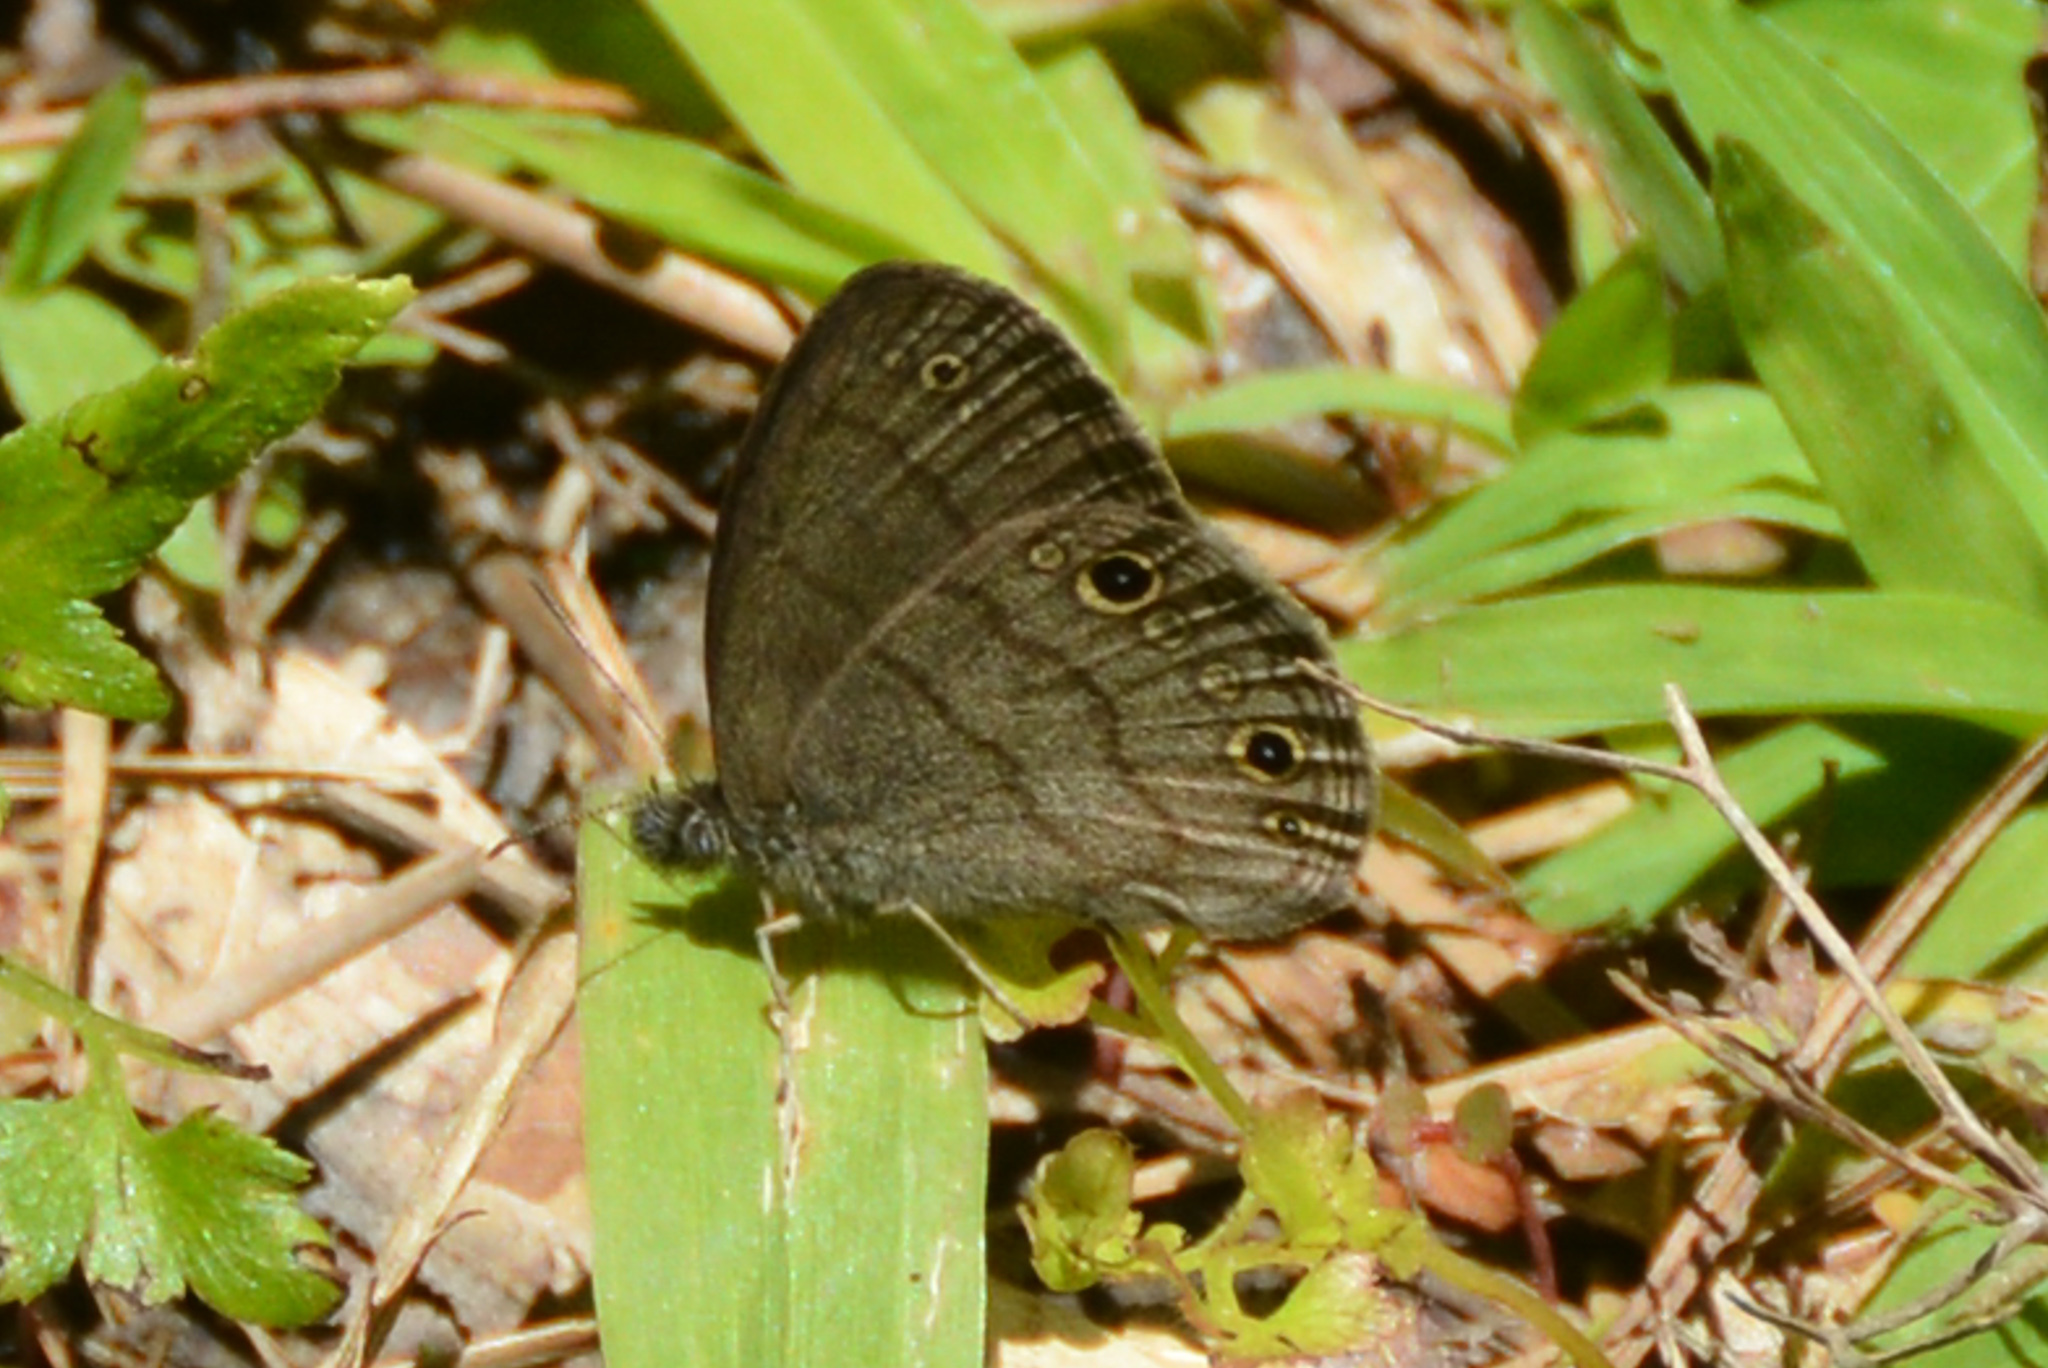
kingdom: Animalia
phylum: Arthropoda
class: Insecta
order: Lepidoptera
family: Nymphalidae
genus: Hermeuptychia
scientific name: Hermeuptychia hermes
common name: Hermes satyr
